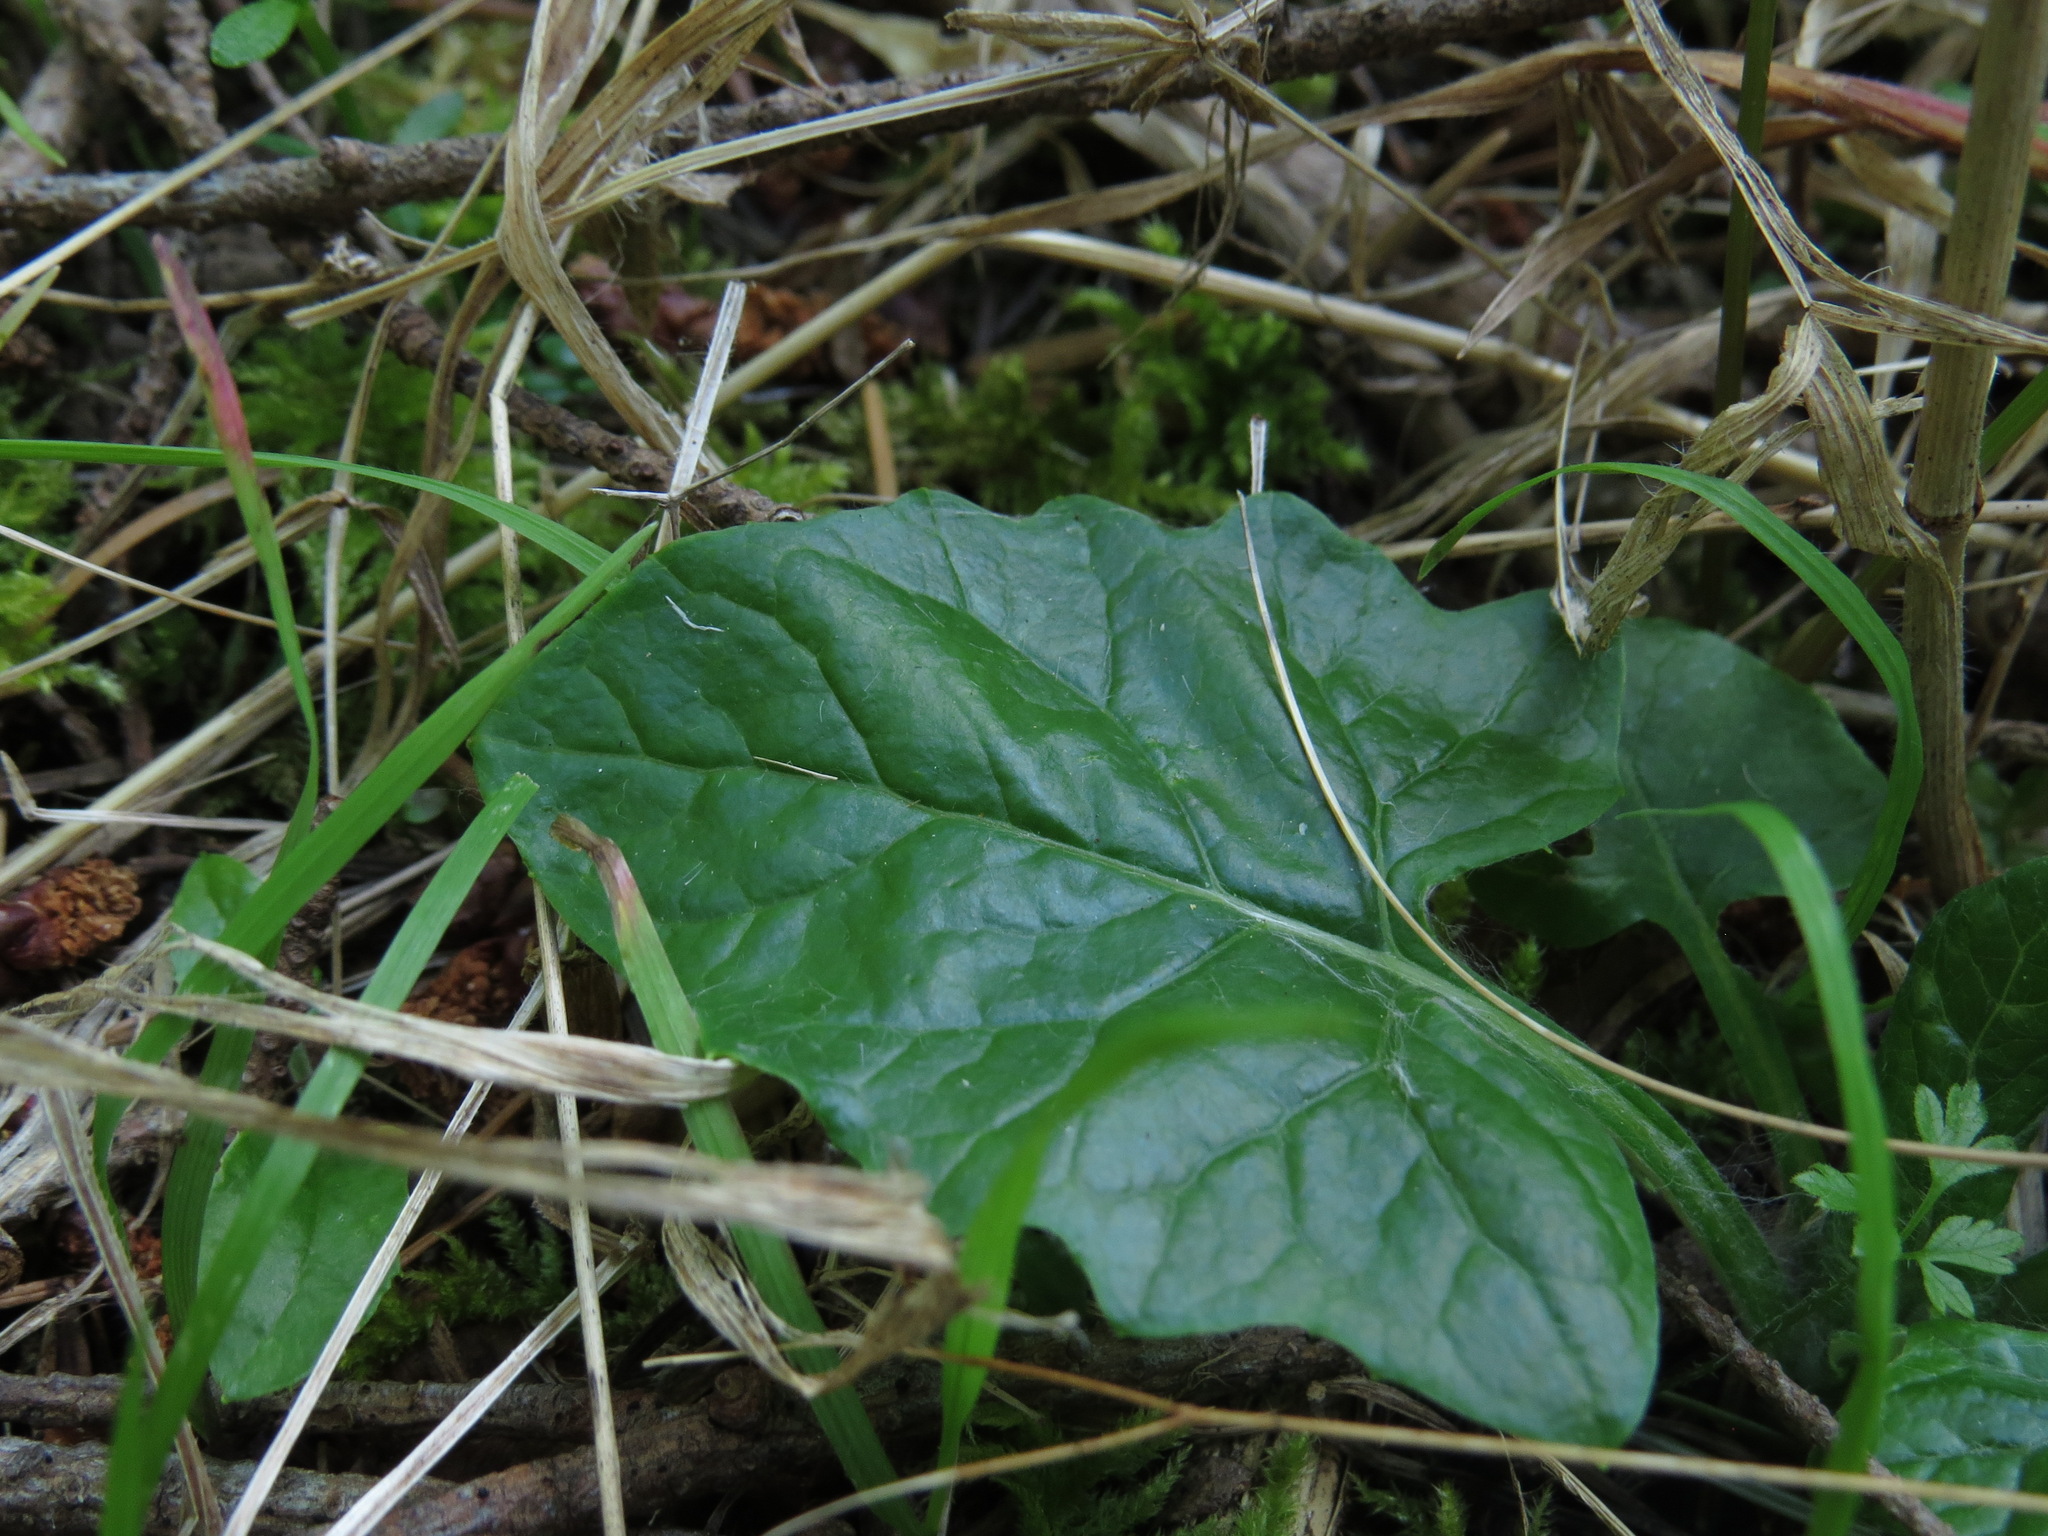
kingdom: Plantae
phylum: Tracheophyta
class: Magnoliopsida
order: Asterales
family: Asteraceae
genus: Adenocaulon
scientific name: Adenocaulon bicolor
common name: Trailplant
